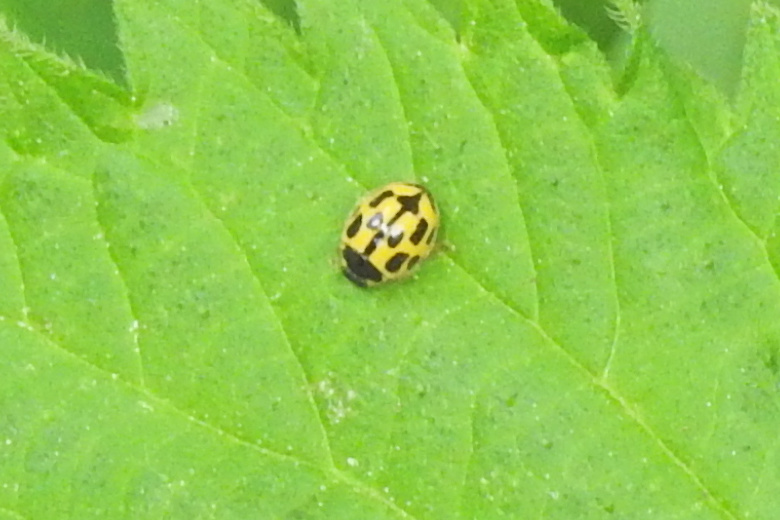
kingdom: Animalia
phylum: Arthropoda
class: Insecta
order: Coleoptera
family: Coccinellidae
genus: Propylaea
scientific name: Propylaea quatuordecimpunctata
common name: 14-spotted ladybird beetle
